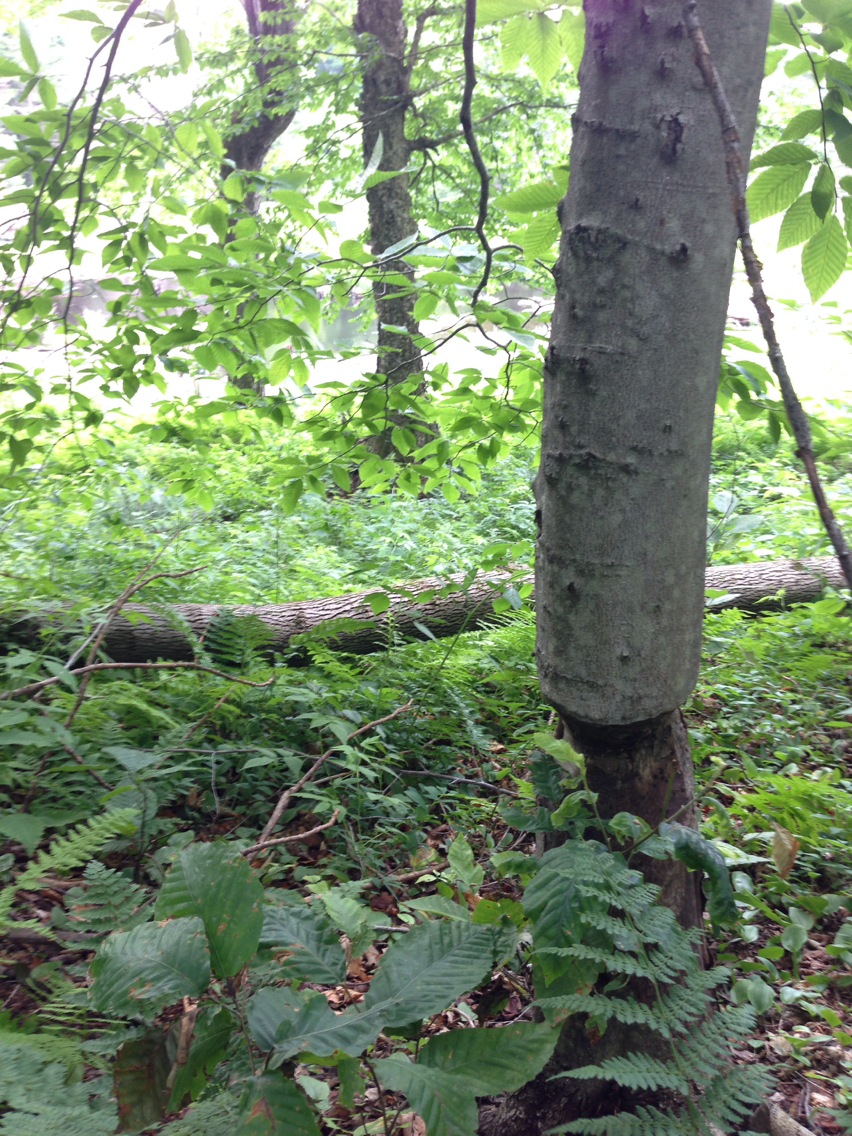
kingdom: Plantae
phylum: Tracheophyta
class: Magnoliopsida
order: Fagales
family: Fagaceae
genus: Fagus
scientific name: Fagus grandifolia
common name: American beech
